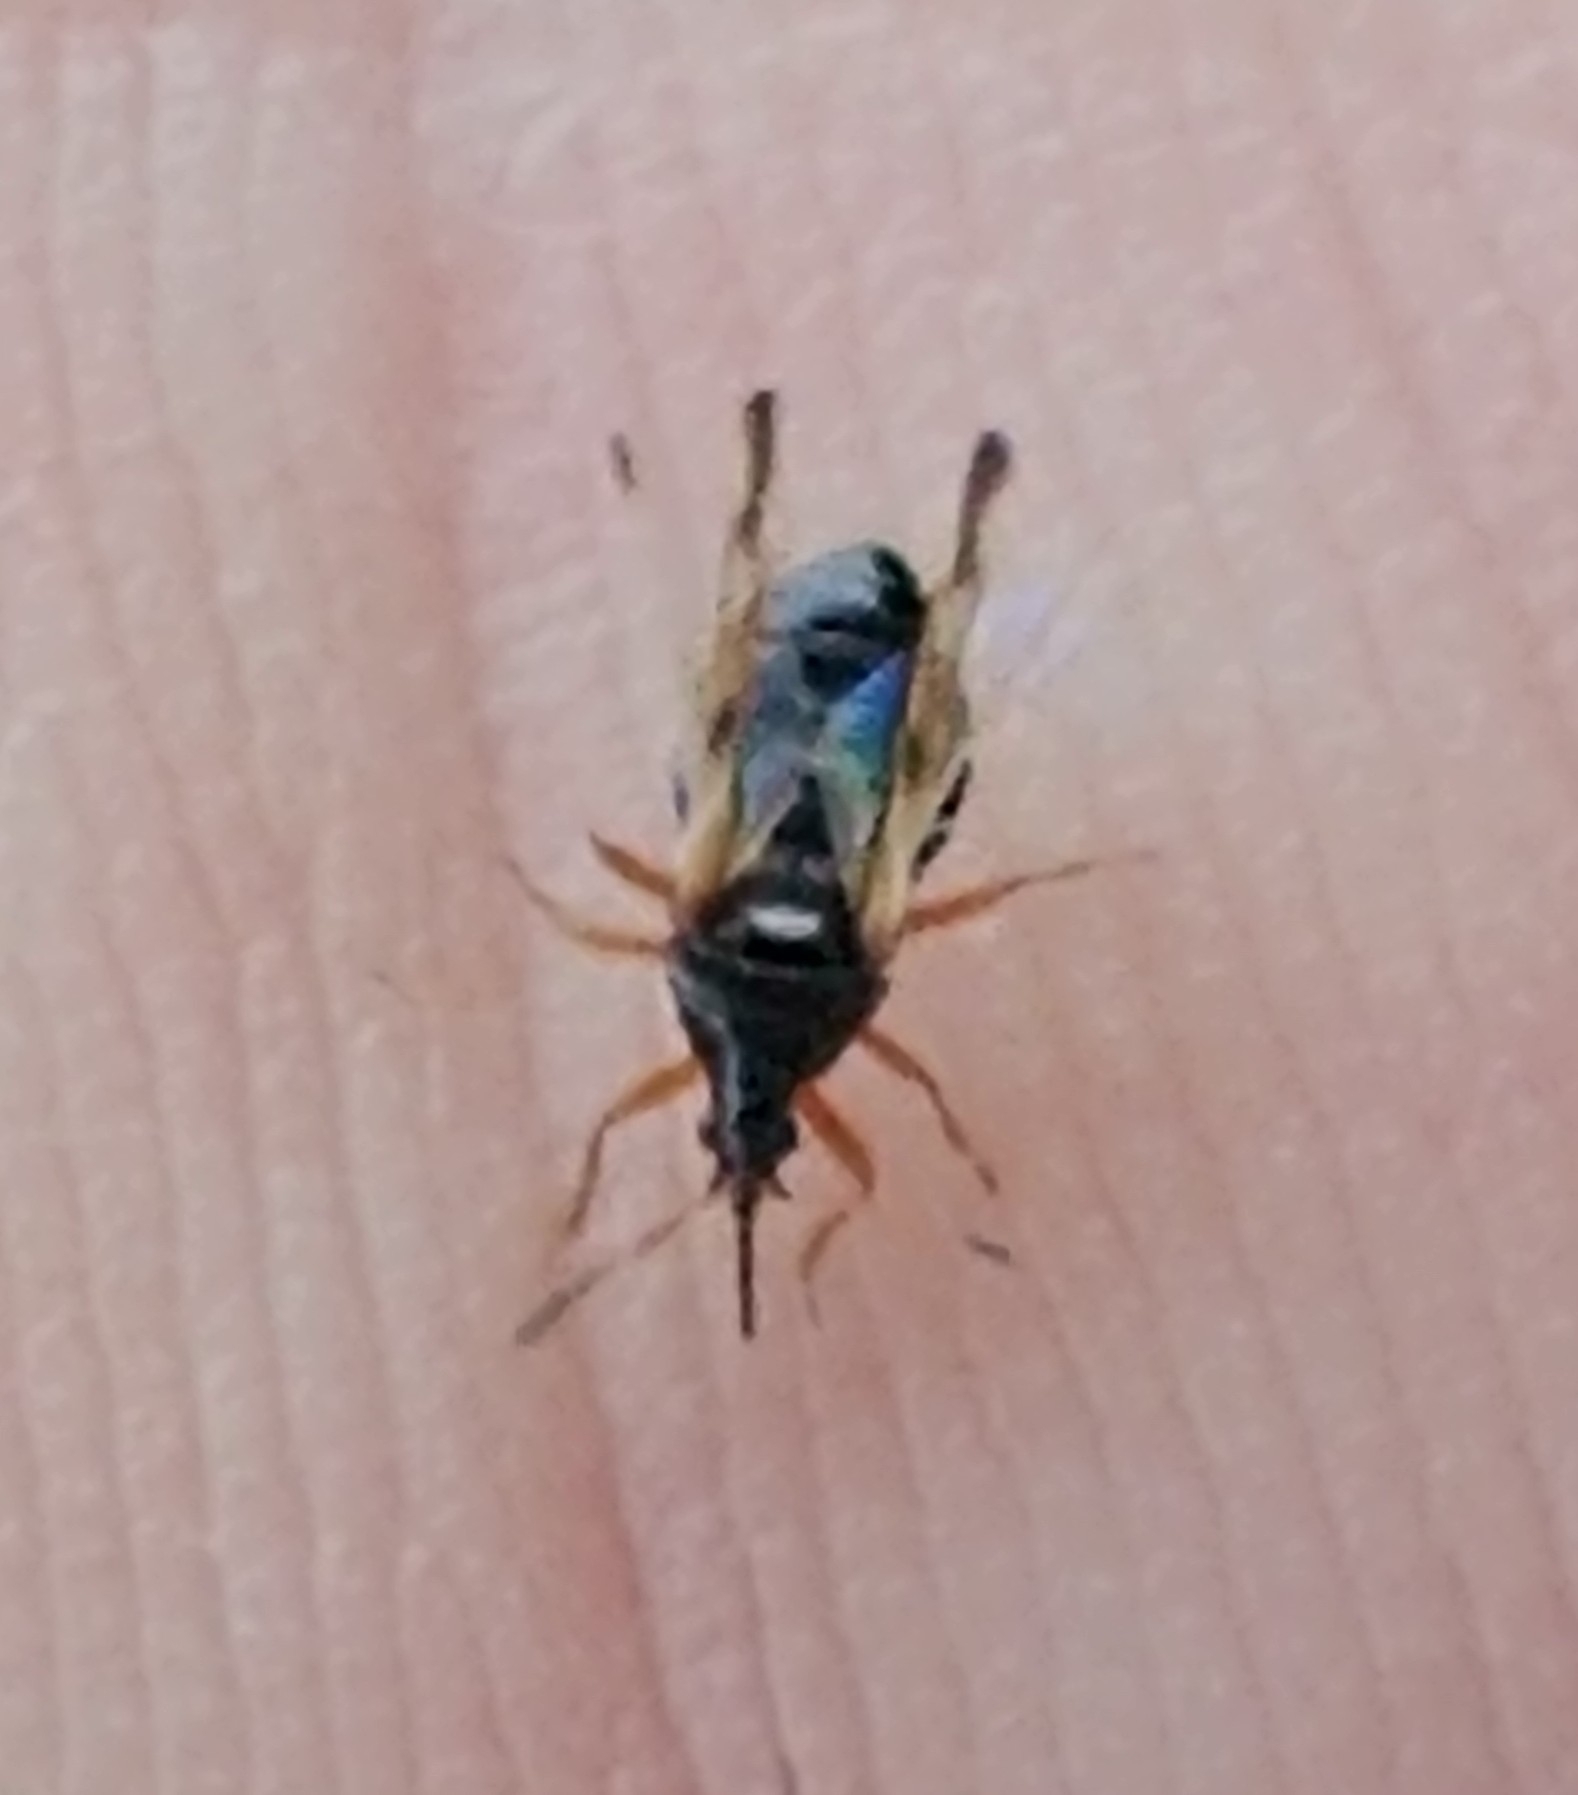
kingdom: Animalia
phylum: Arthropoda
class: Insecta
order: Hemiptera
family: Anthocoridae
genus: Anthocoris
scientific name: Anthocoris nemorum
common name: Minute pirate bug
